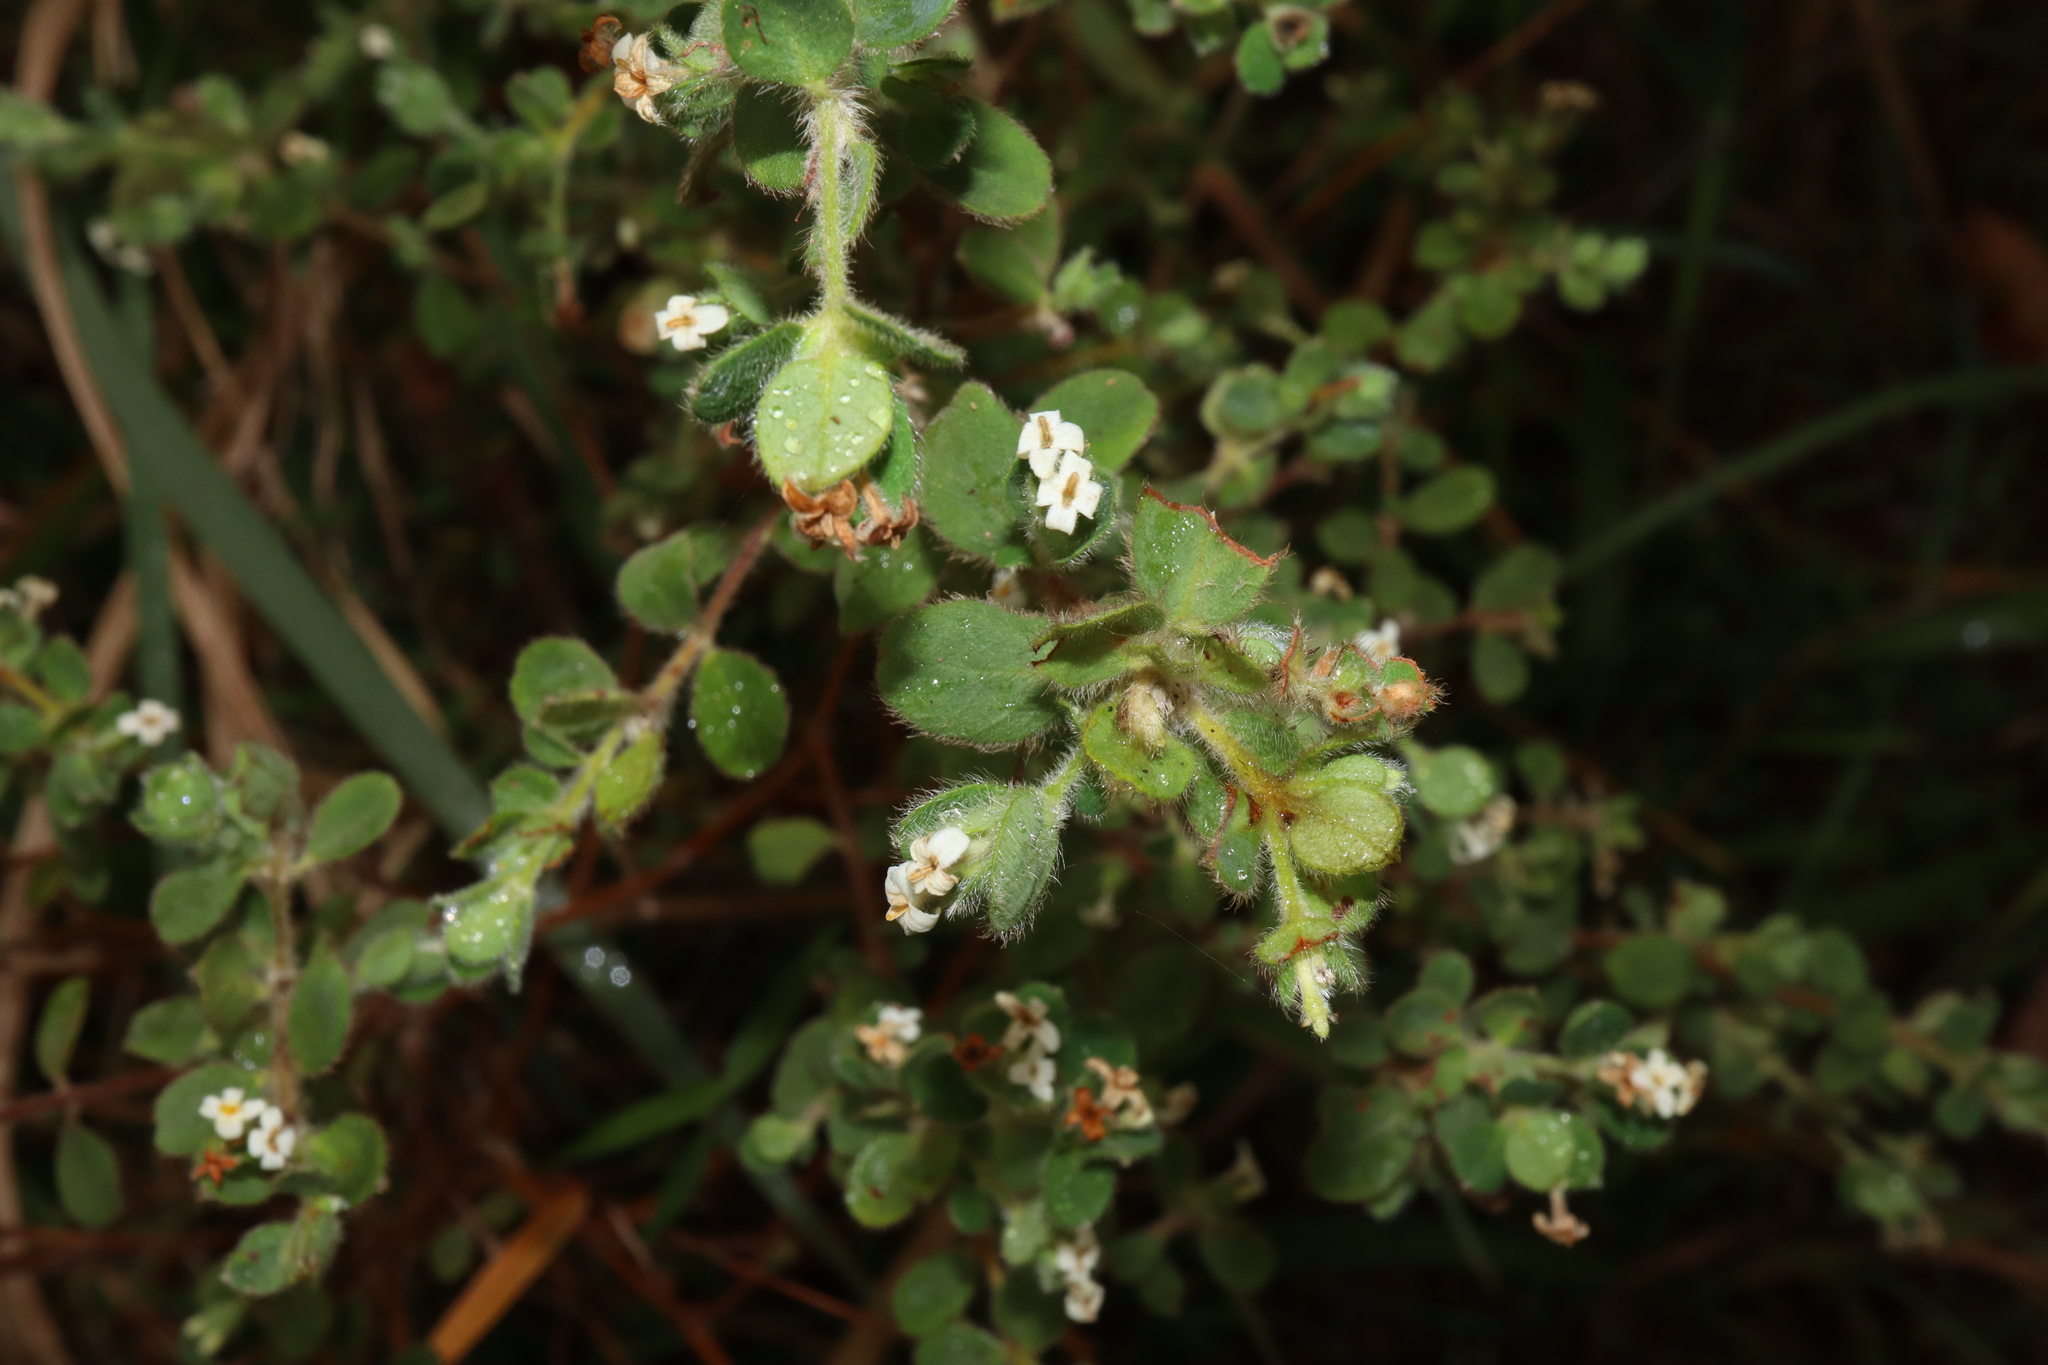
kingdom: Plantae
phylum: Tracheophyta
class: Magnoliopsida
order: Malvales
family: Thymelaeaceae
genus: Pimelea
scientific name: Pimelea altior
